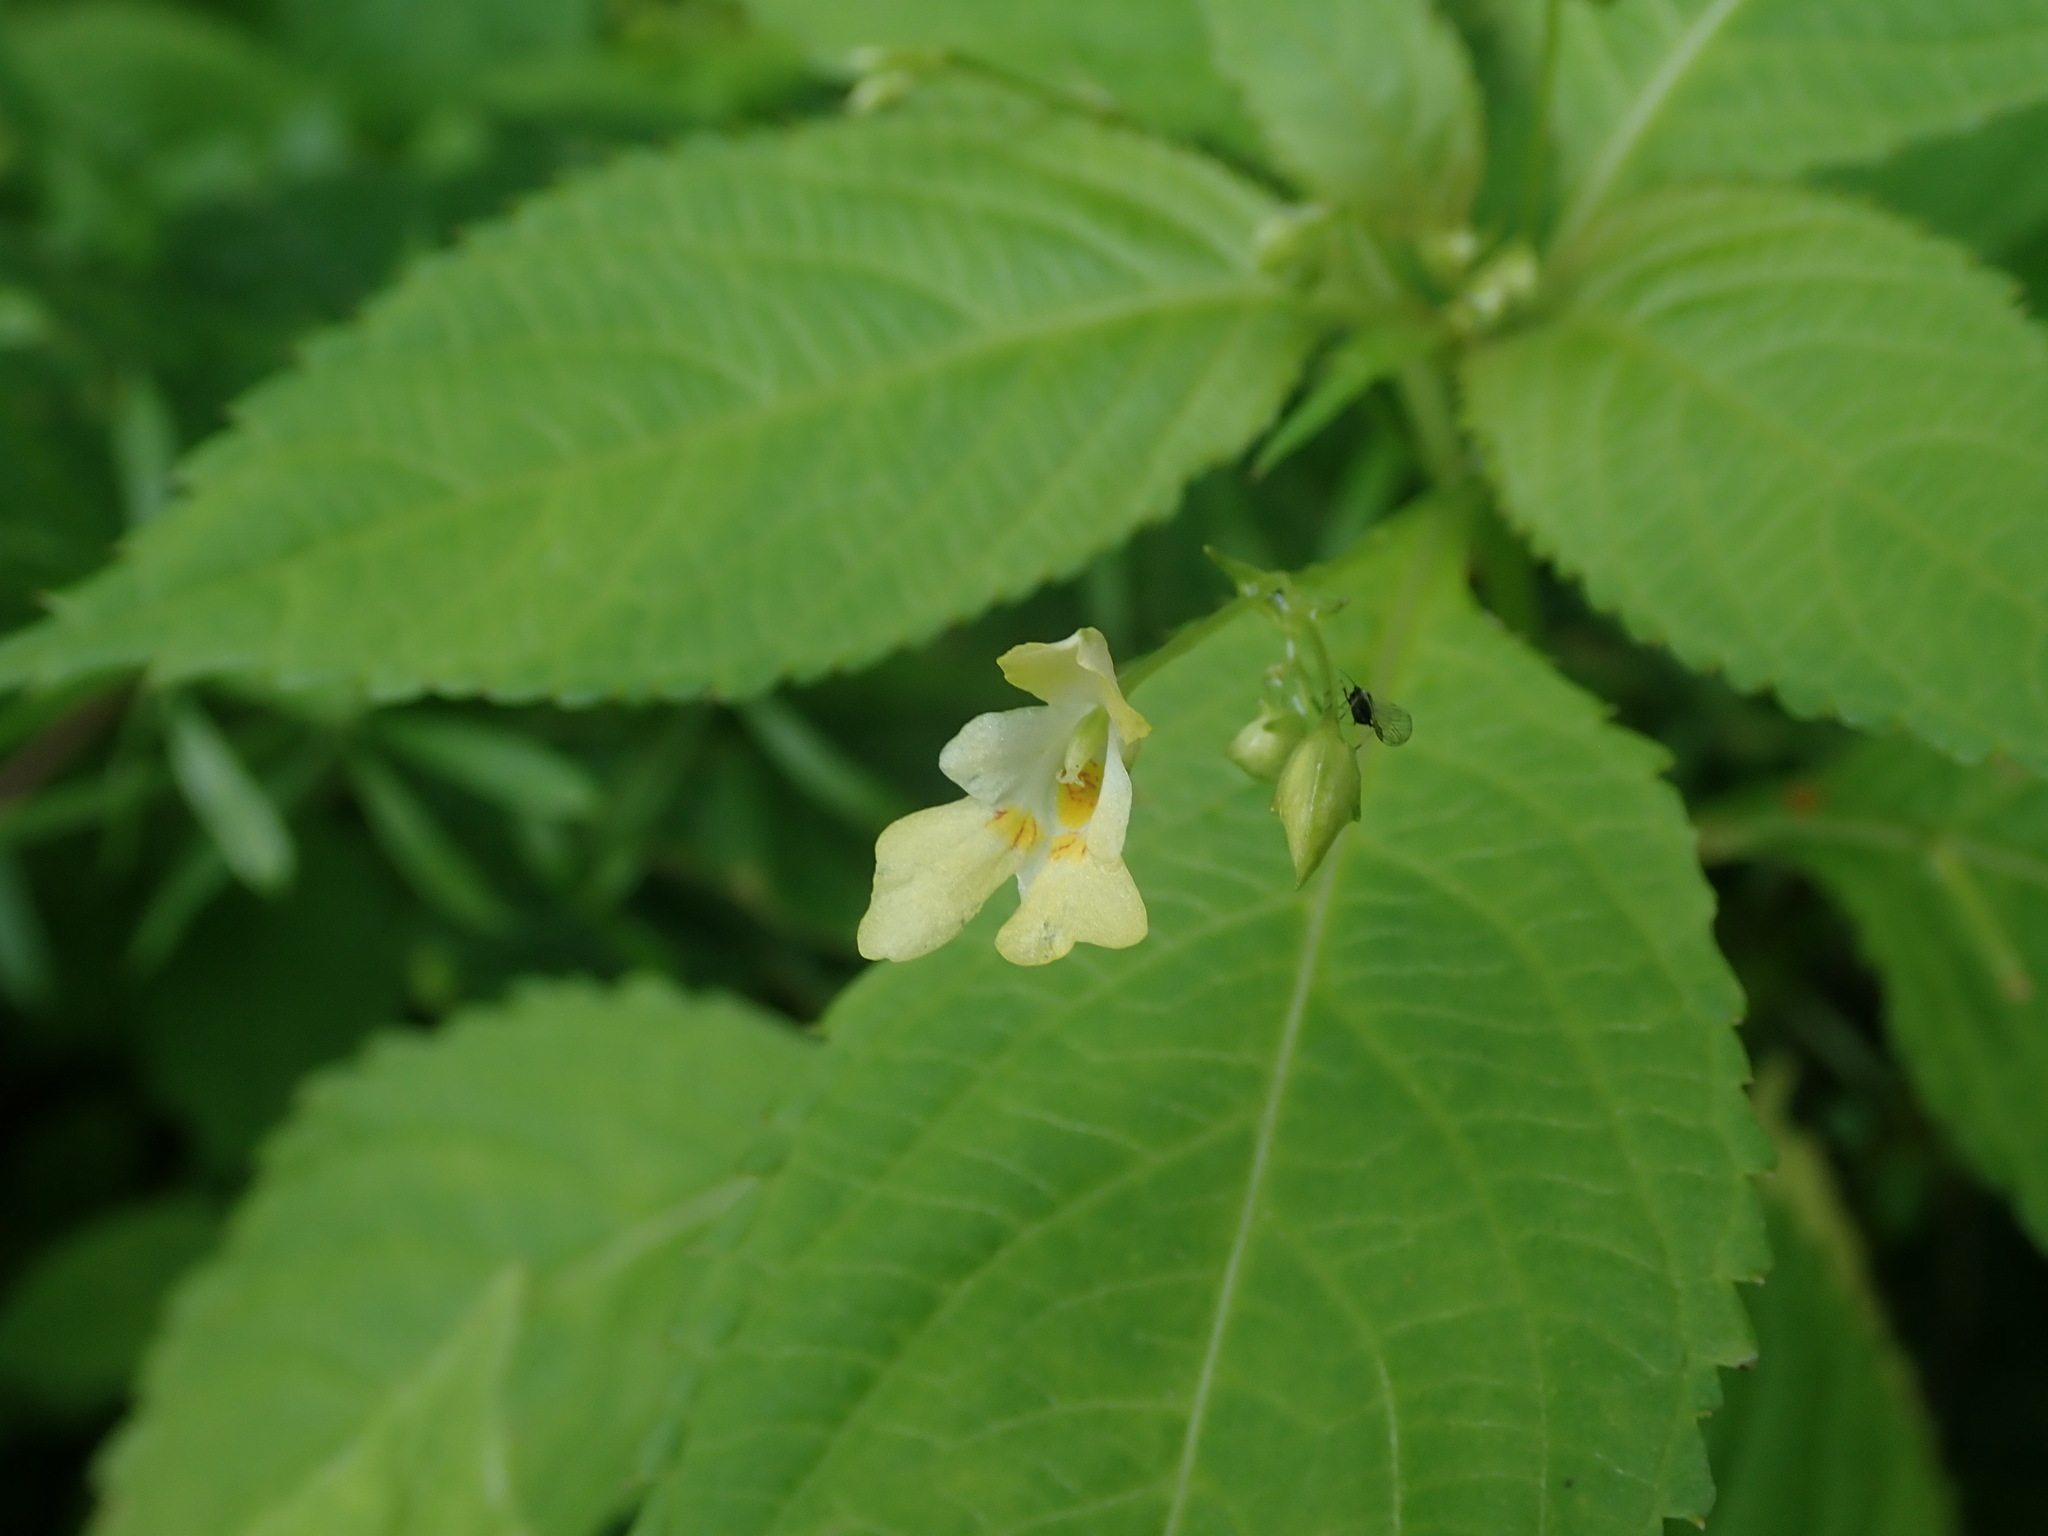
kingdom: Plantae
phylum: Tracheophyta
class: Magnoliopsida
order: Ericales
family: Balsaminaceae
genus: Impatiens
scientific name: Impatiens parviflora
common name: Small balsam
